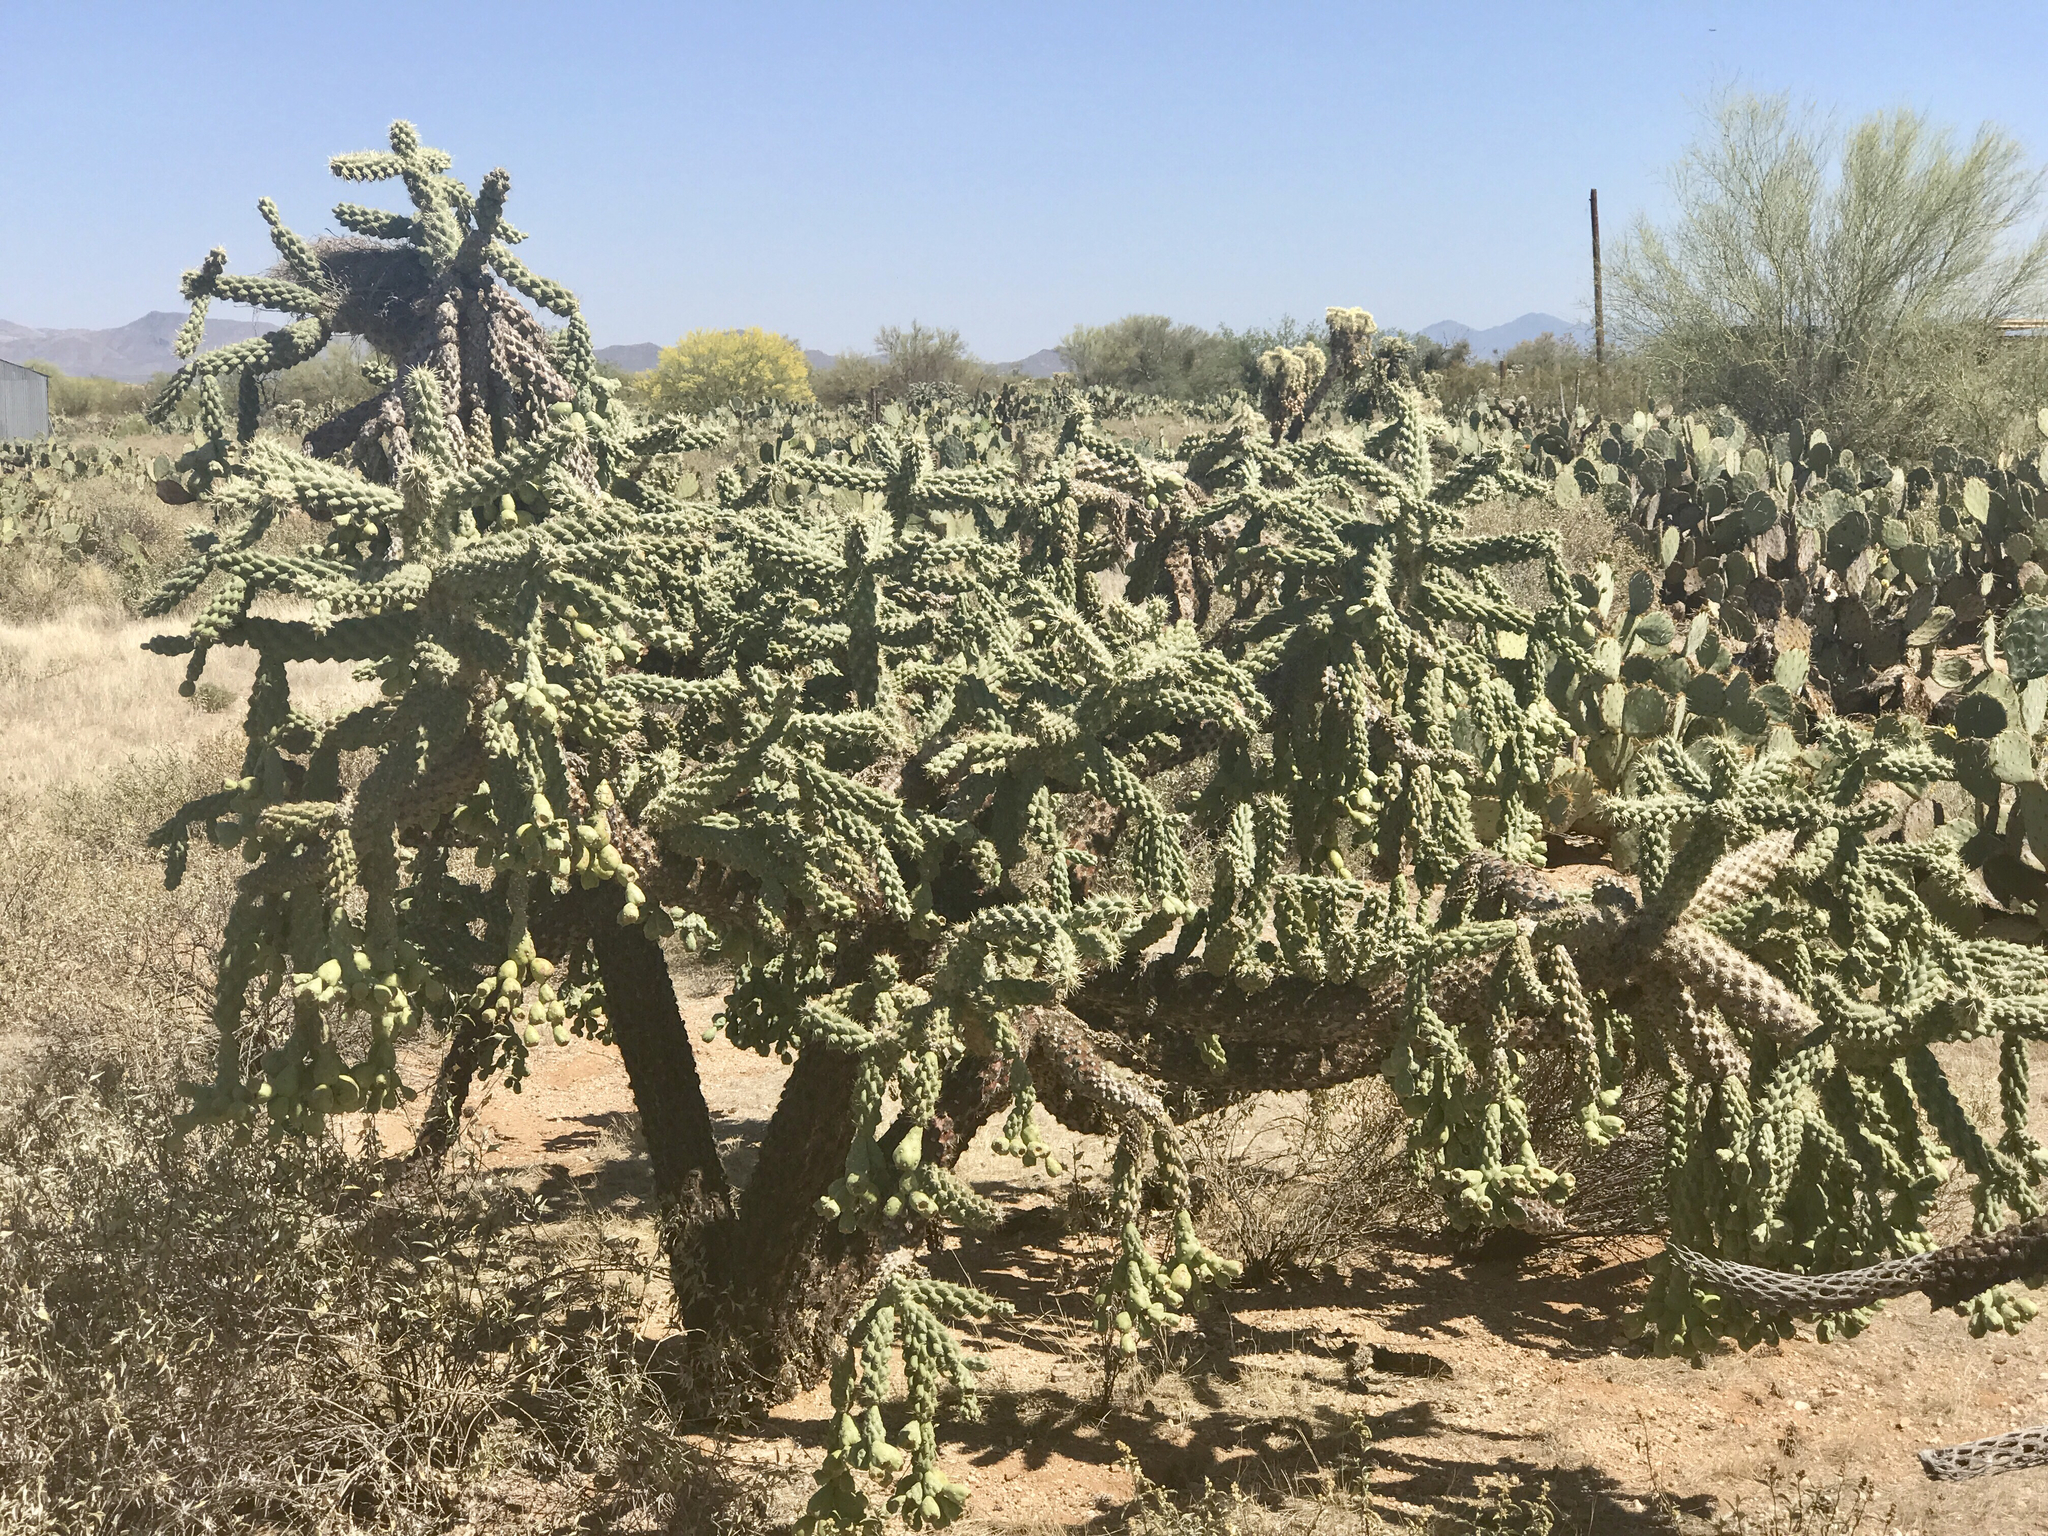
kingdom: Plantae
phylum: Tracheophyta
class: Magnoliopsida
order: Caryophyllales
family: Cactaceae
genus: Cylindropuntia
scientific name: Cylindropuntia fulgida
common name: Jumping cholla
